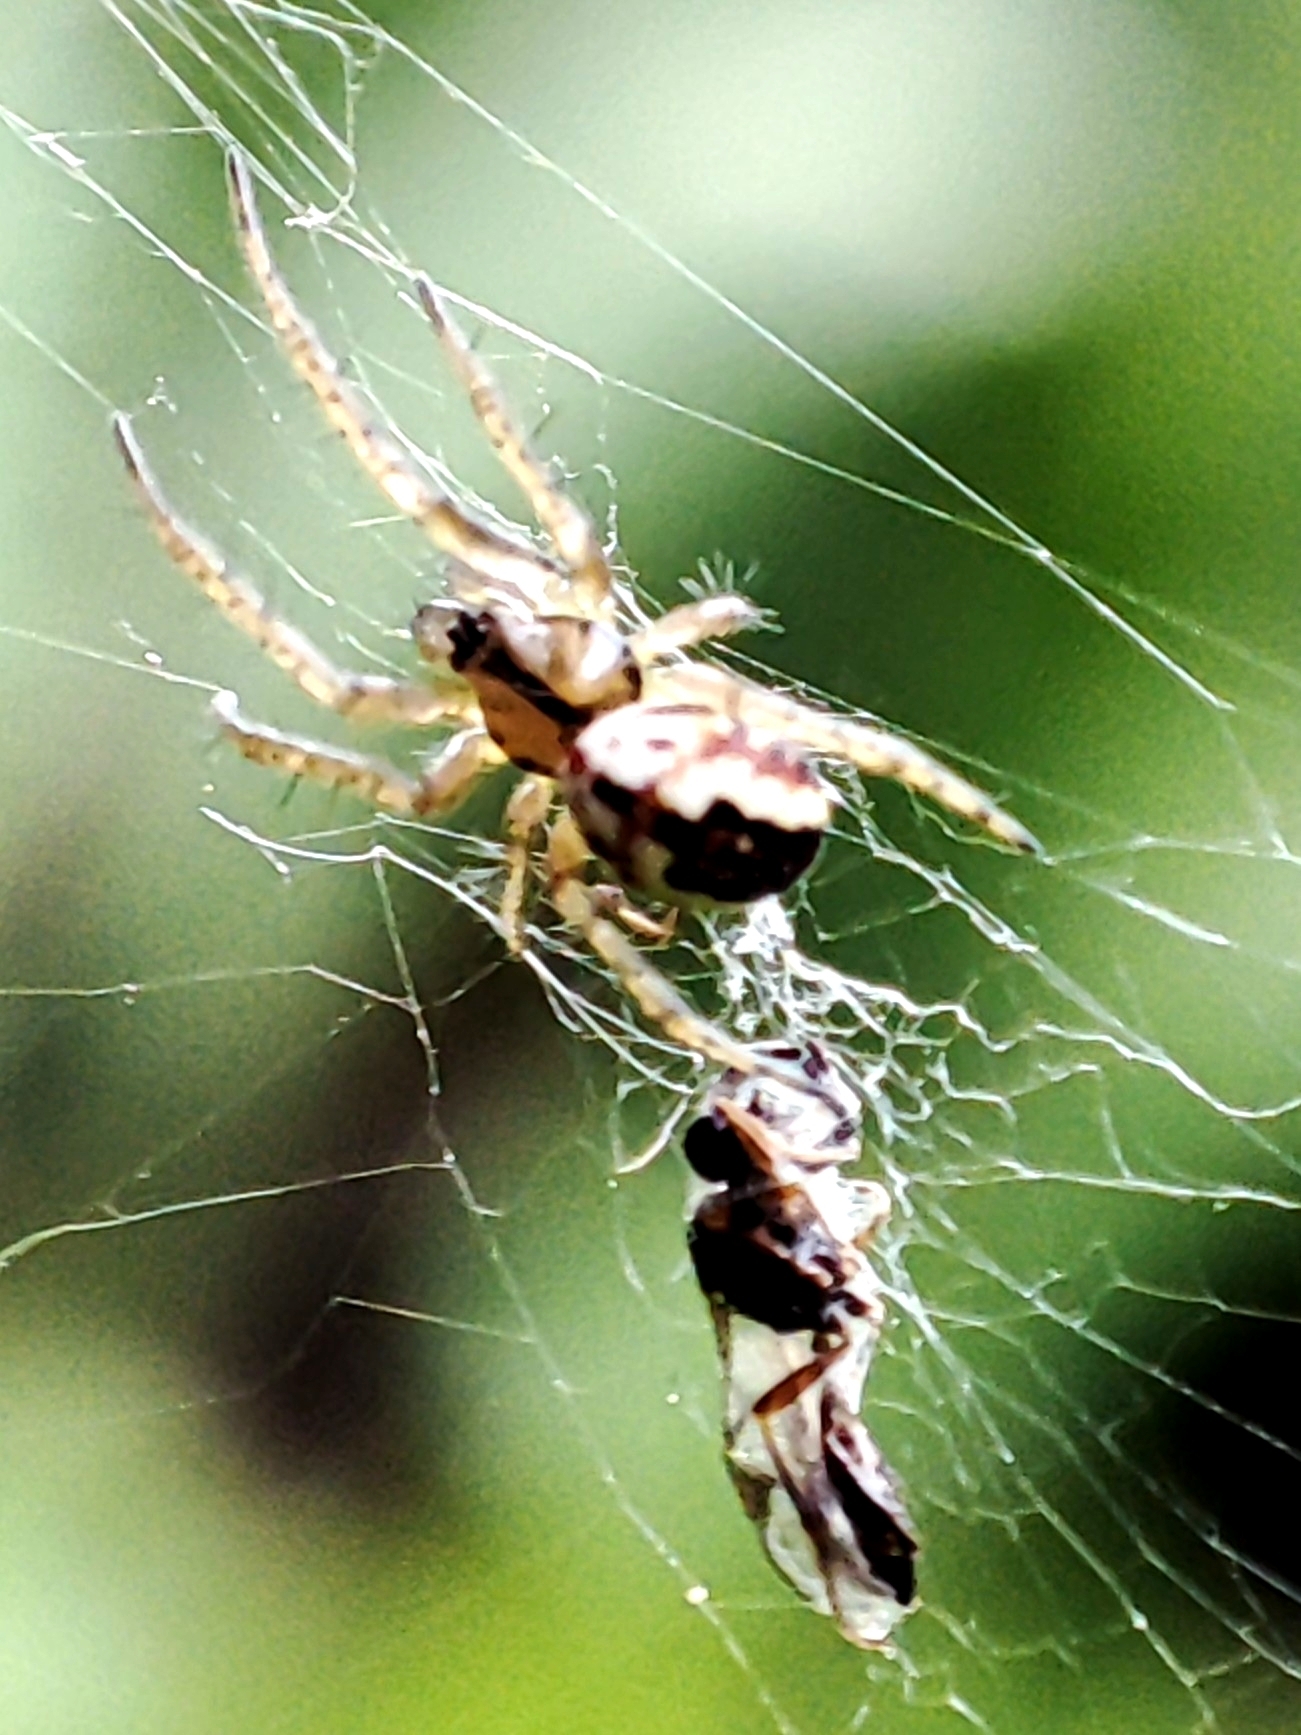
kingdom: Animalia
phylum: Arthropoda
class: Arachnida
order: Araneae
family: Araneidae
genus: Mangora
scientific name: Mangora acalypha
